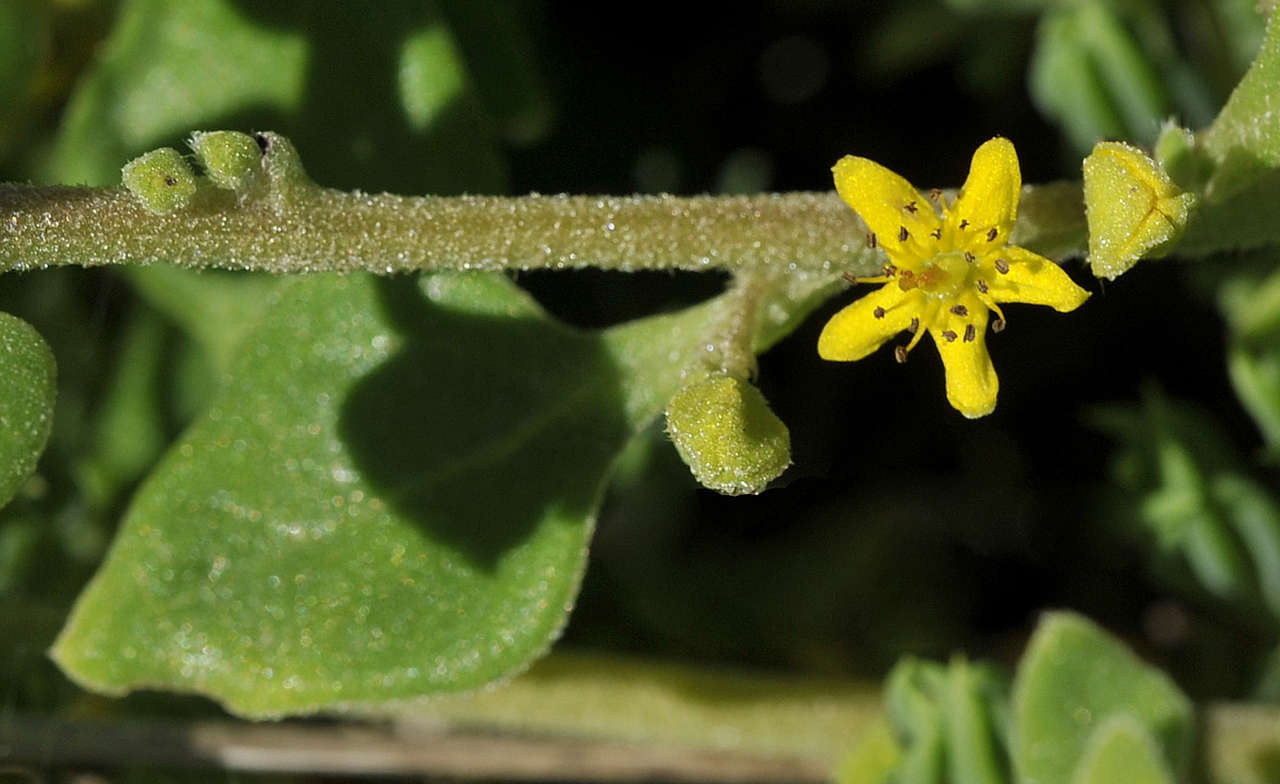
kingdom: Plantae
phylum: Tracheophyta
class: Magnoliopsida
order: Caryophyllales
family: Aizoaceae
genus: Tetragonia
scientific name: Tetragonia implexicoma
